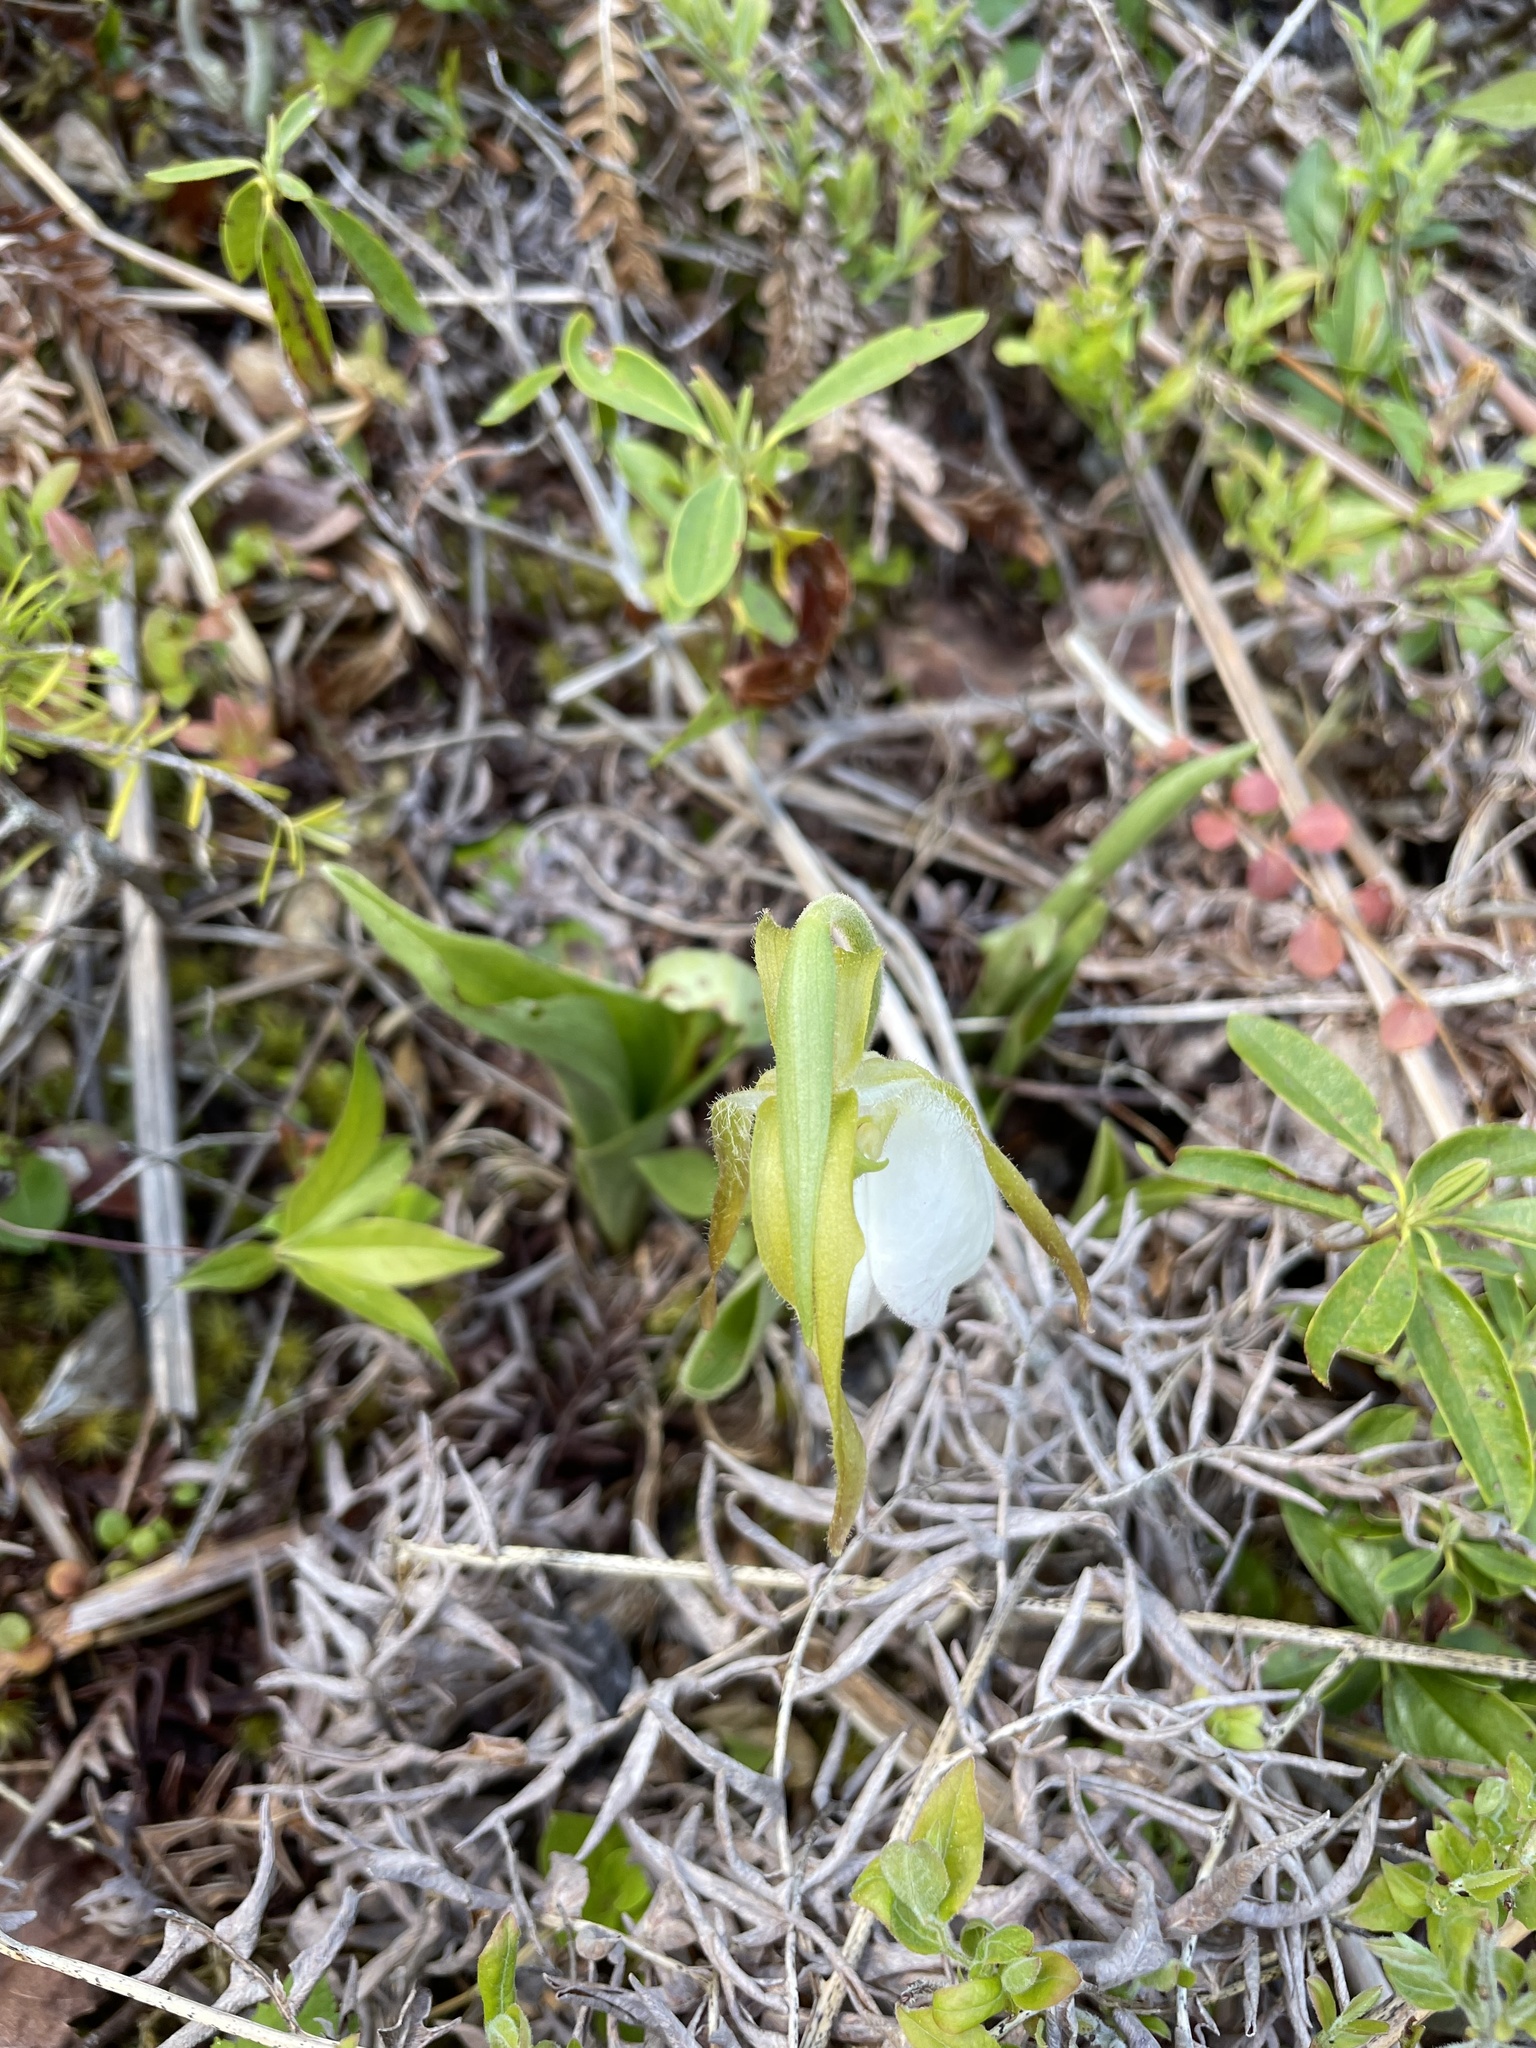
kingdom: Plantae
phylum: Tracheophyta
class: Liliopsida
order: Asparagales
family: Orchidaceae
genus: Cypripedium
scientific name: Cypripedium acaule
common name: Pink lady's-slipper
